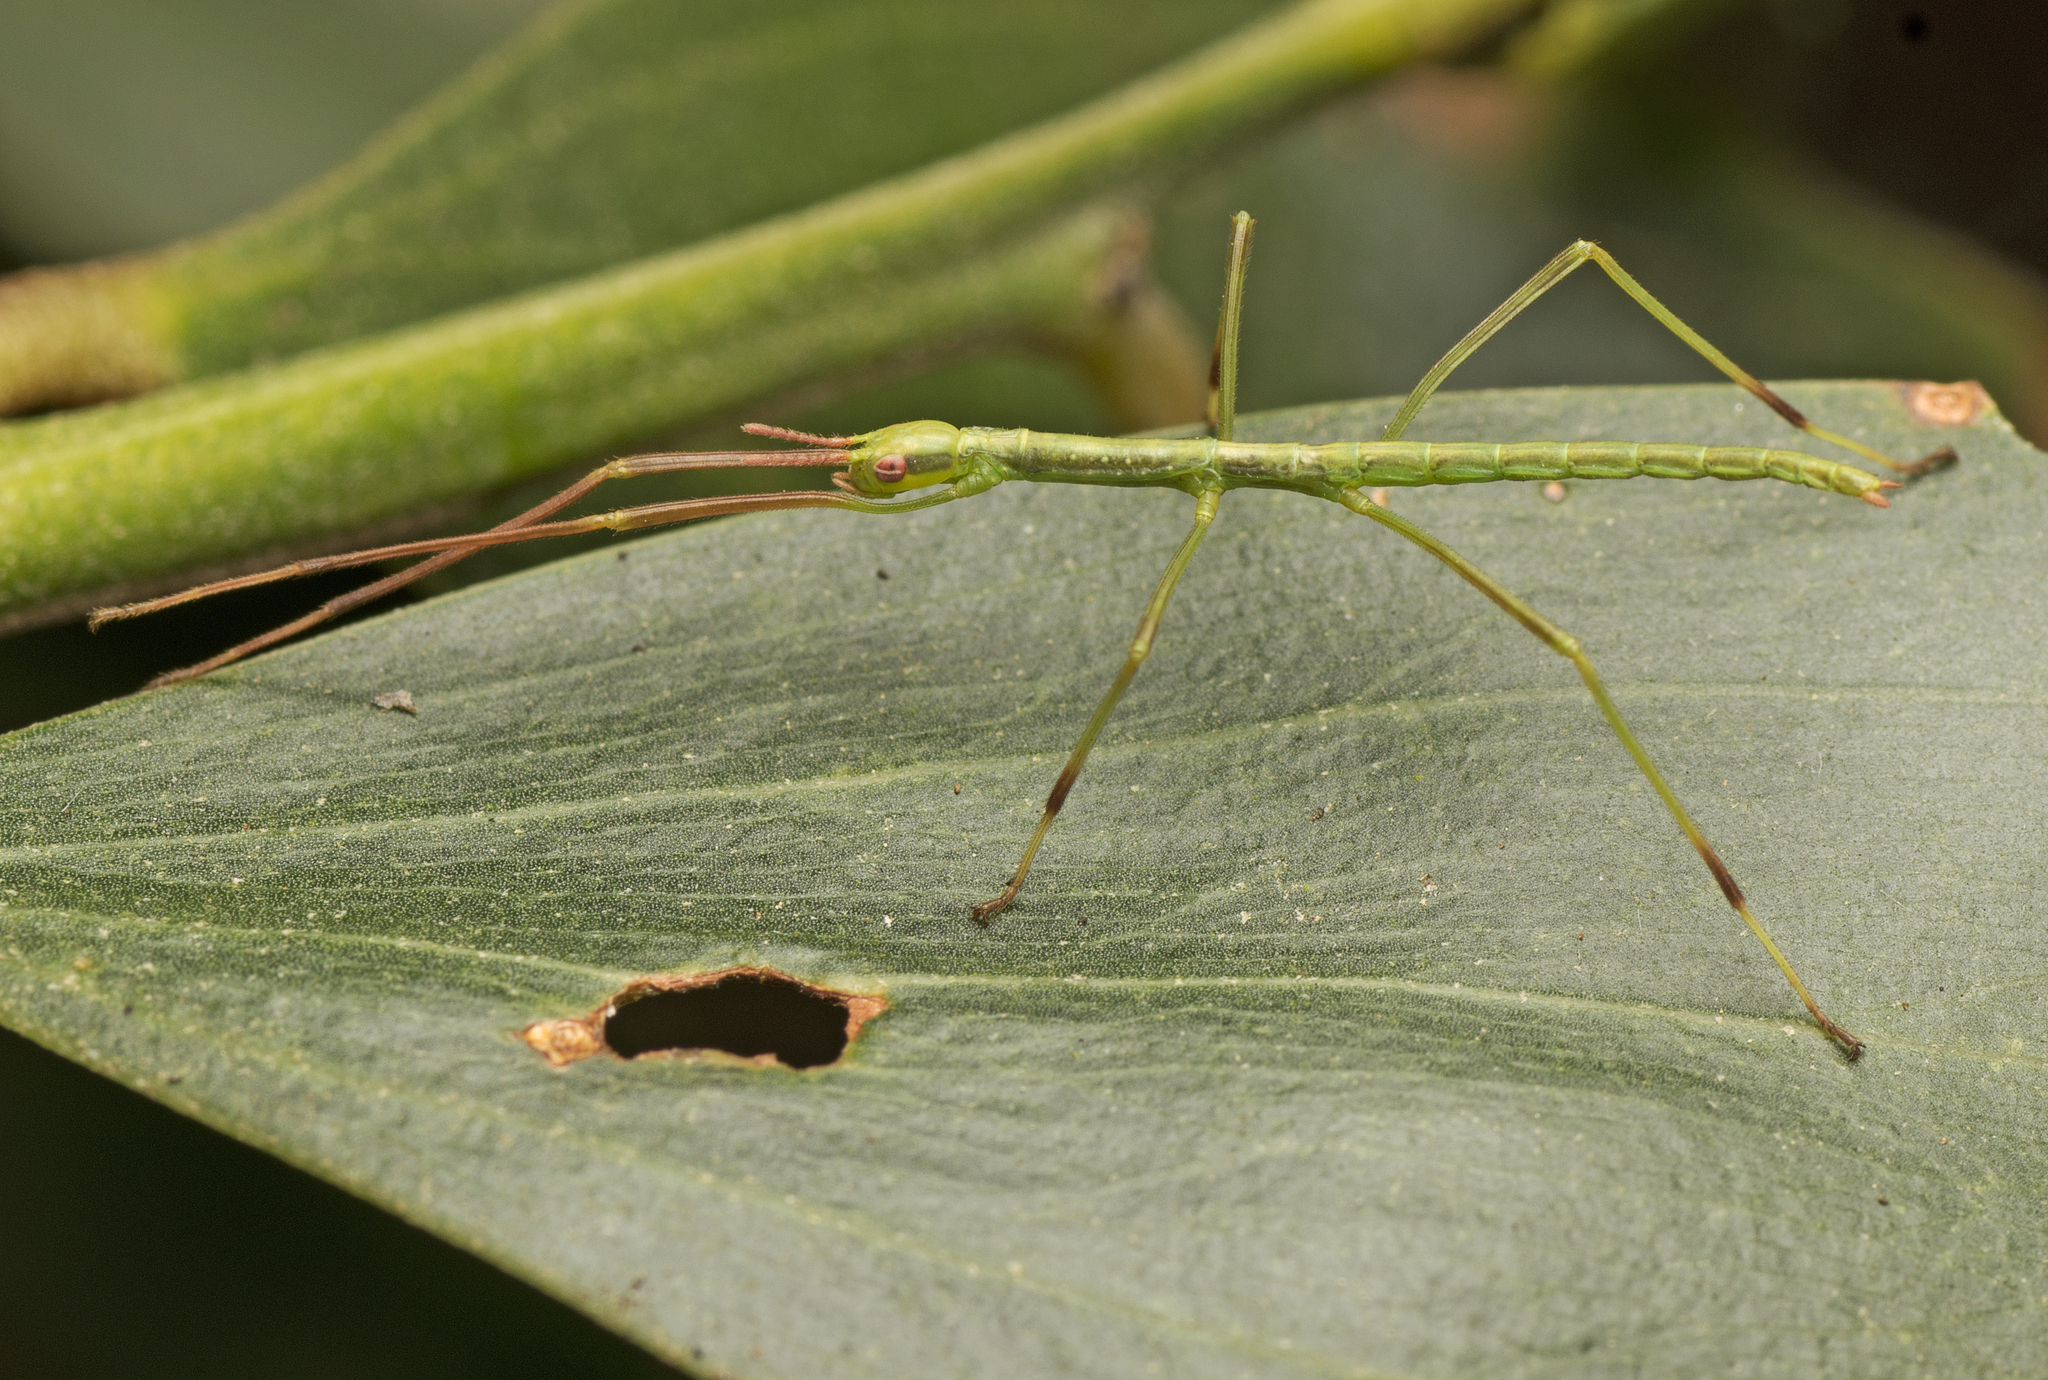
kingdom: Animalia
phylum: Arthropoda
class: Insecta
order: Phasmida
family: Phasmatidae
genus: Anchiale
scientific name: Anchiale austrotessulata
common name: Tessellated stick-insect
